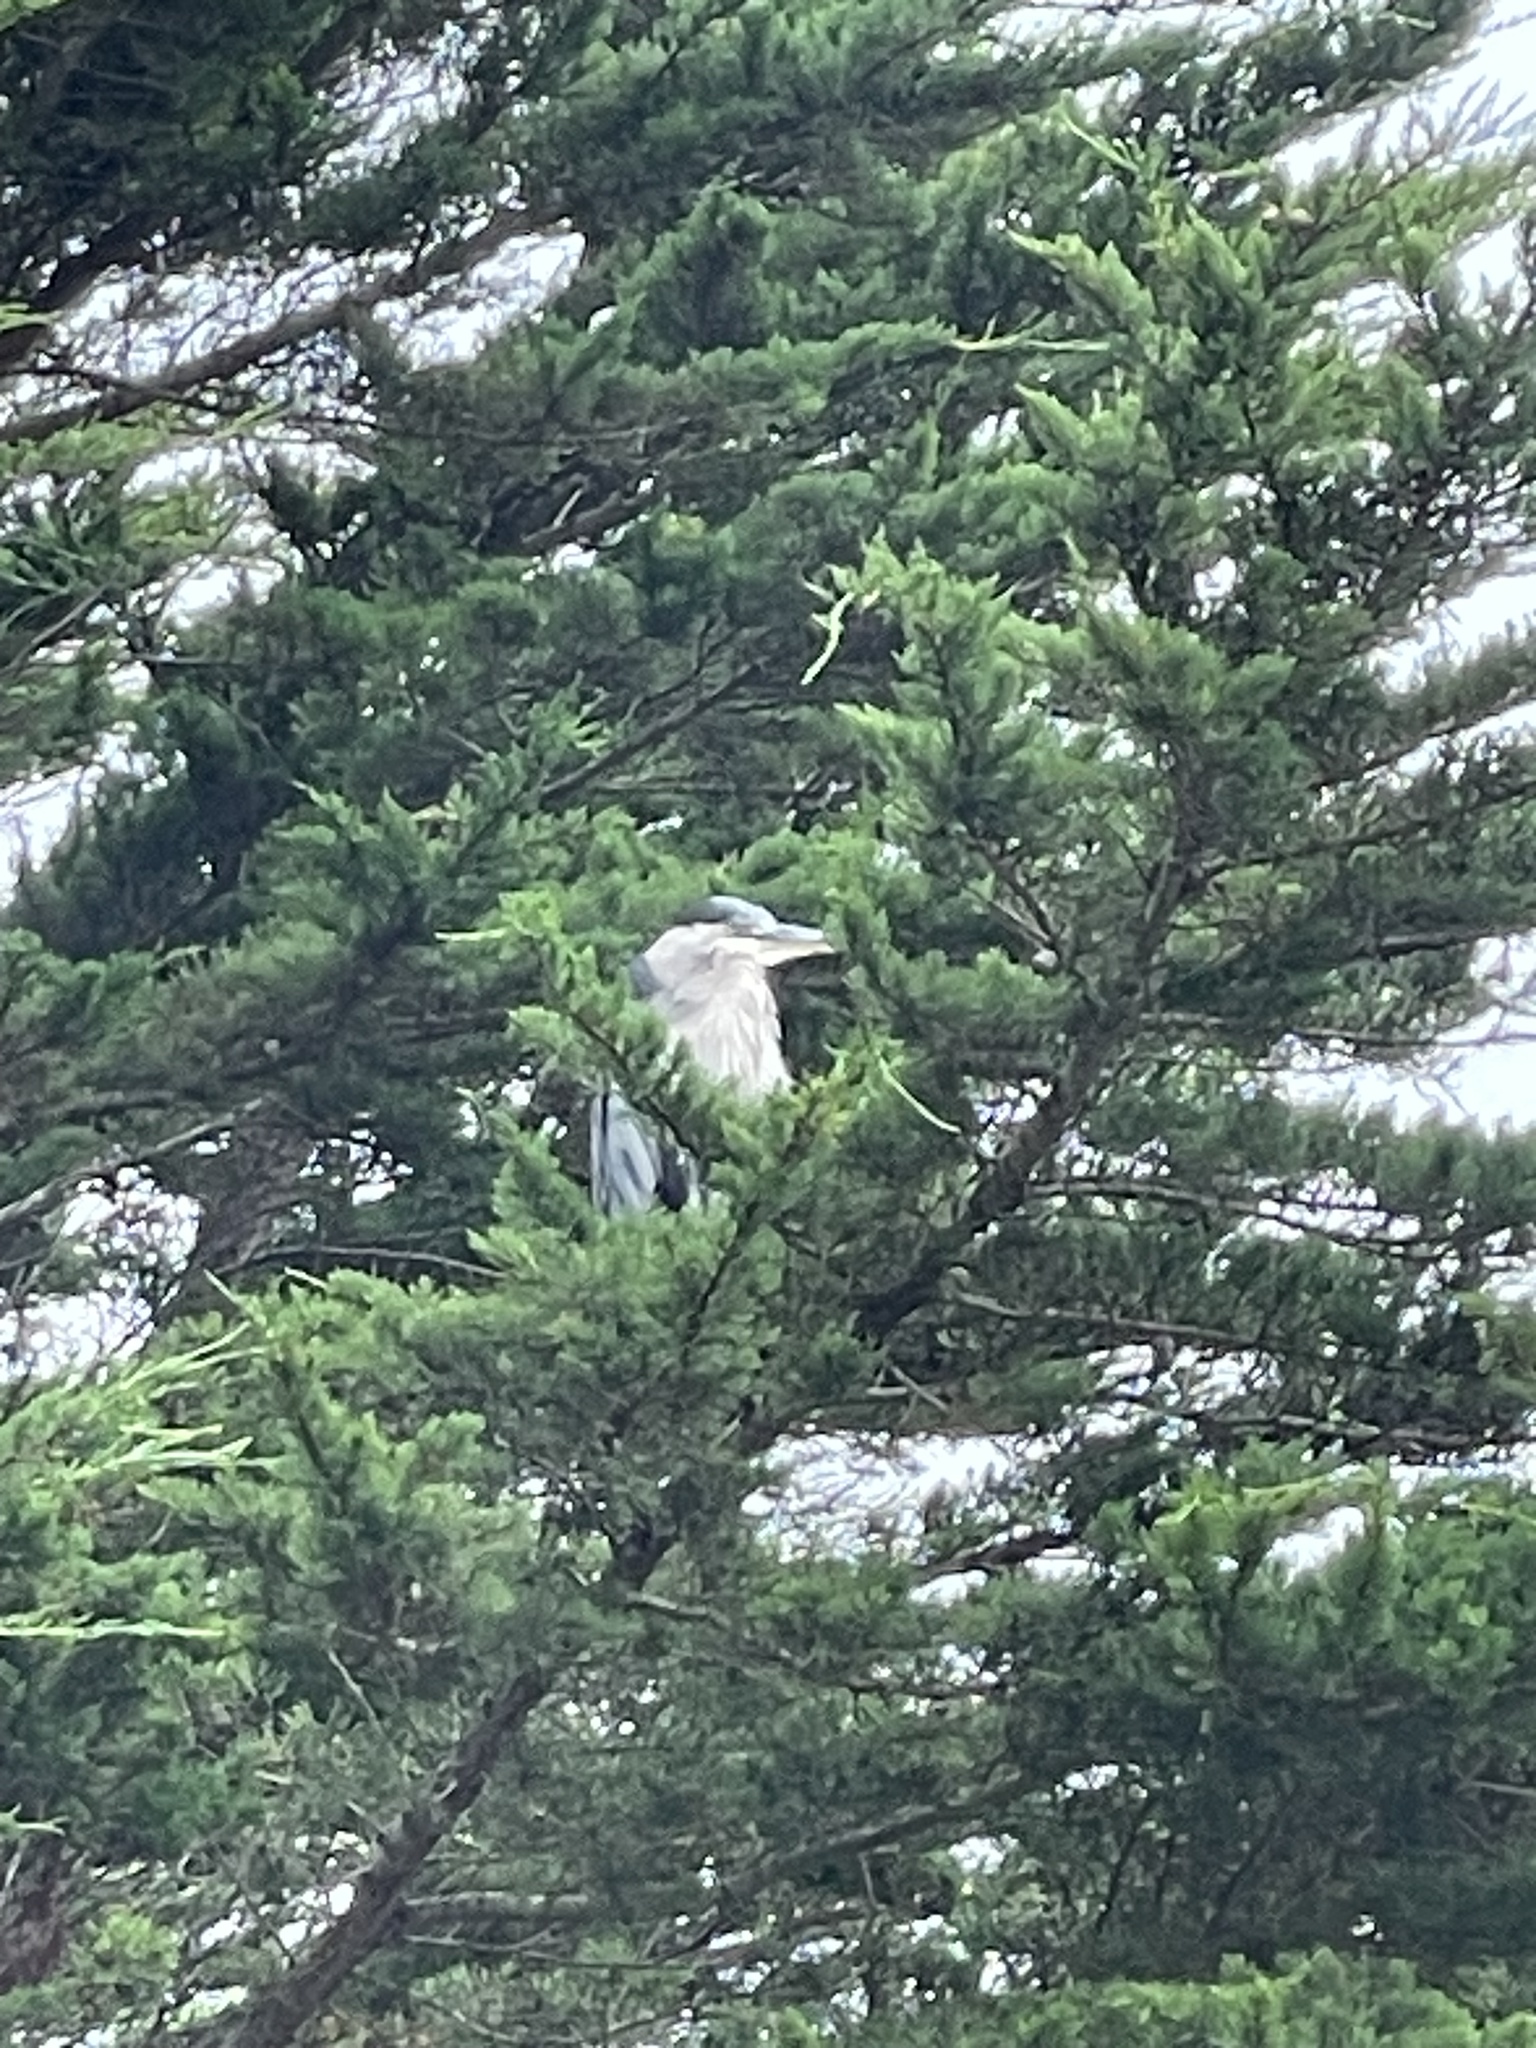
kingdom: Animalia
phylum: Chordata
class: Aves
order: Pelecaniformes
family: Ardeidae
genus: Ardea
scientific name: Ardea herodias
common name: Great blue heron
